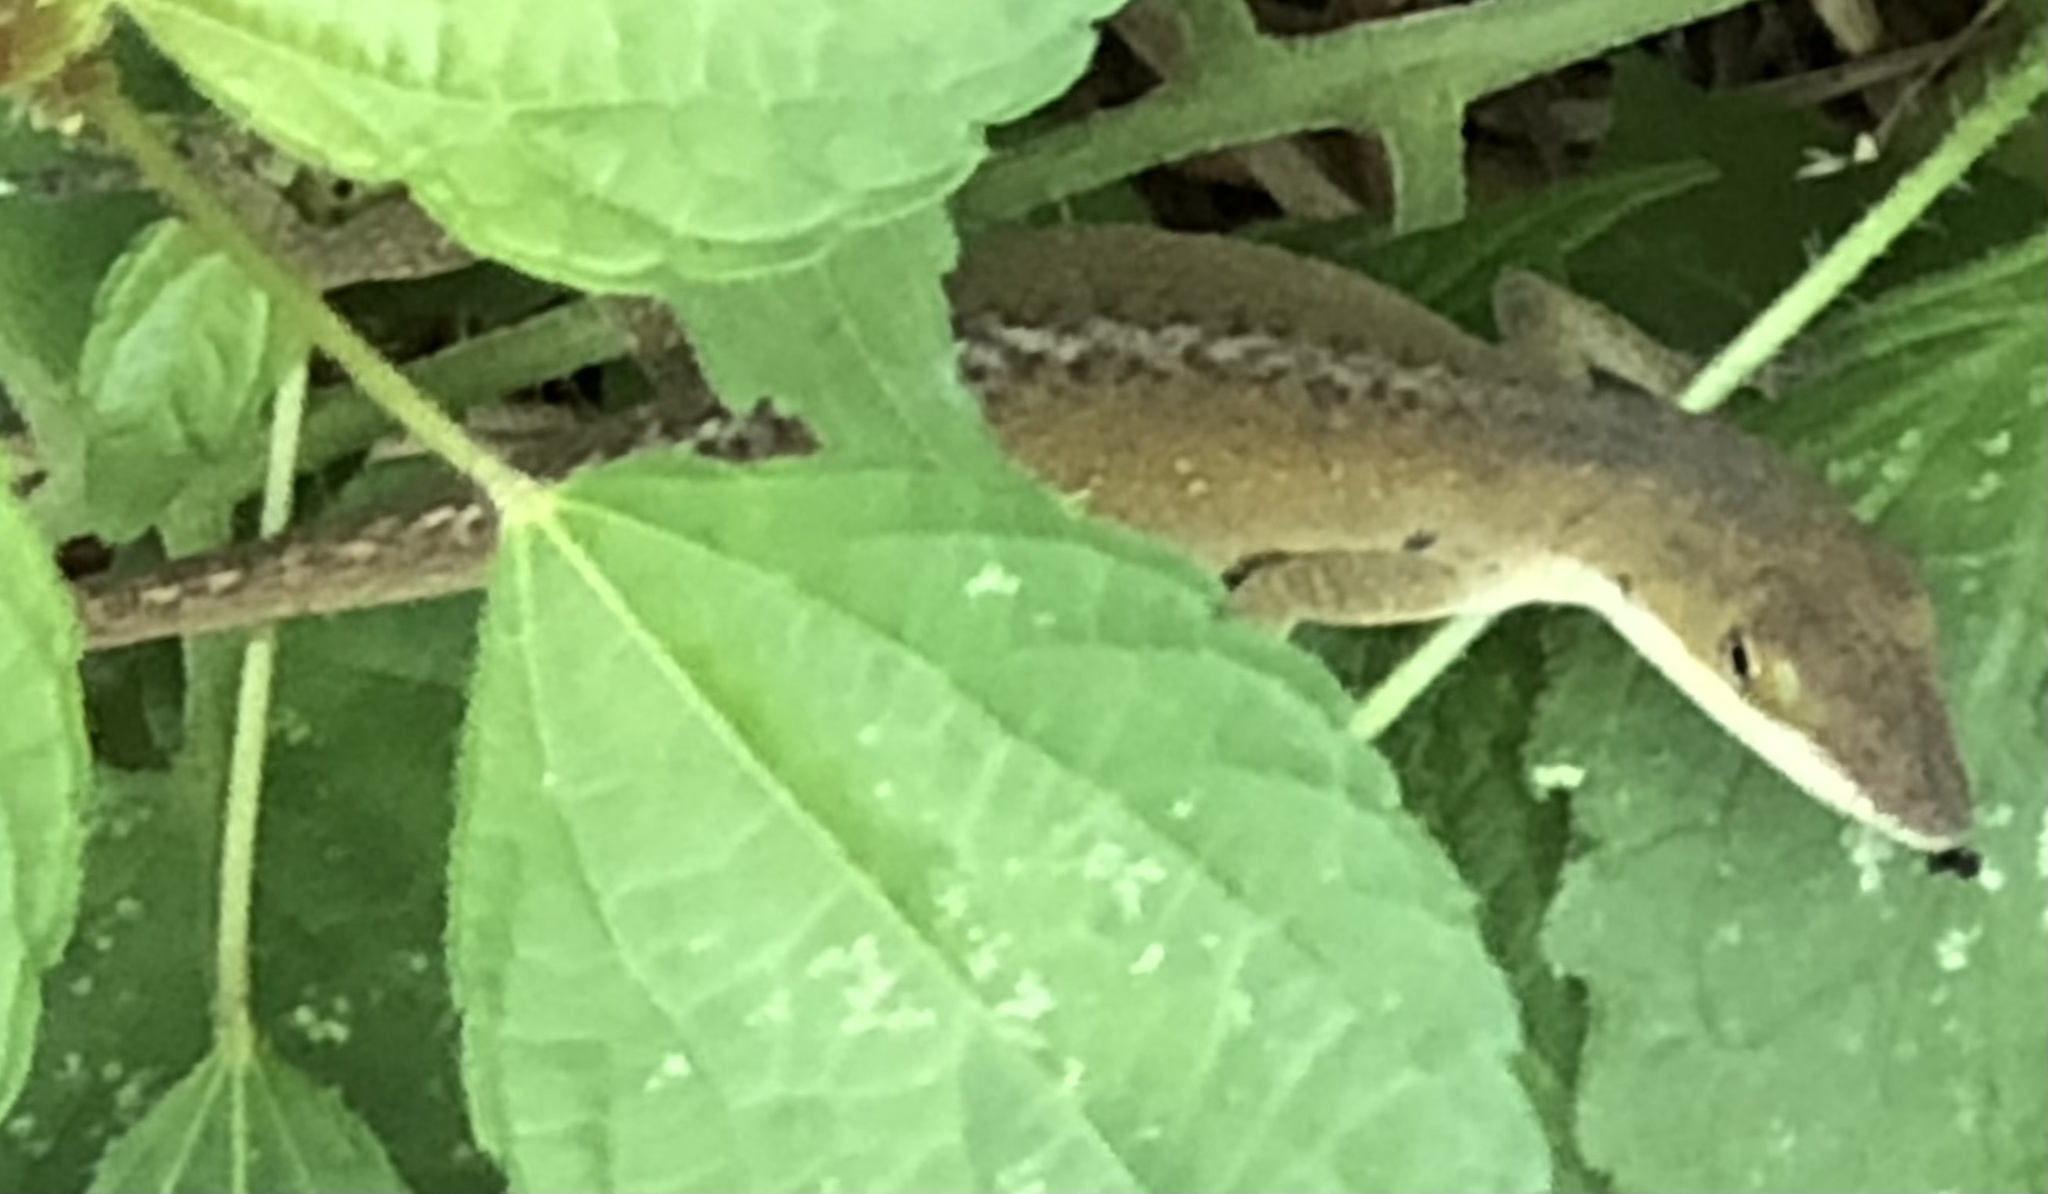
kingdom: Animalia
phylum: Chordata
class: Squamata
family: Dactyloidae
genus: Anolis
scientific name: Anolis carolinensis
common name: Green anole
